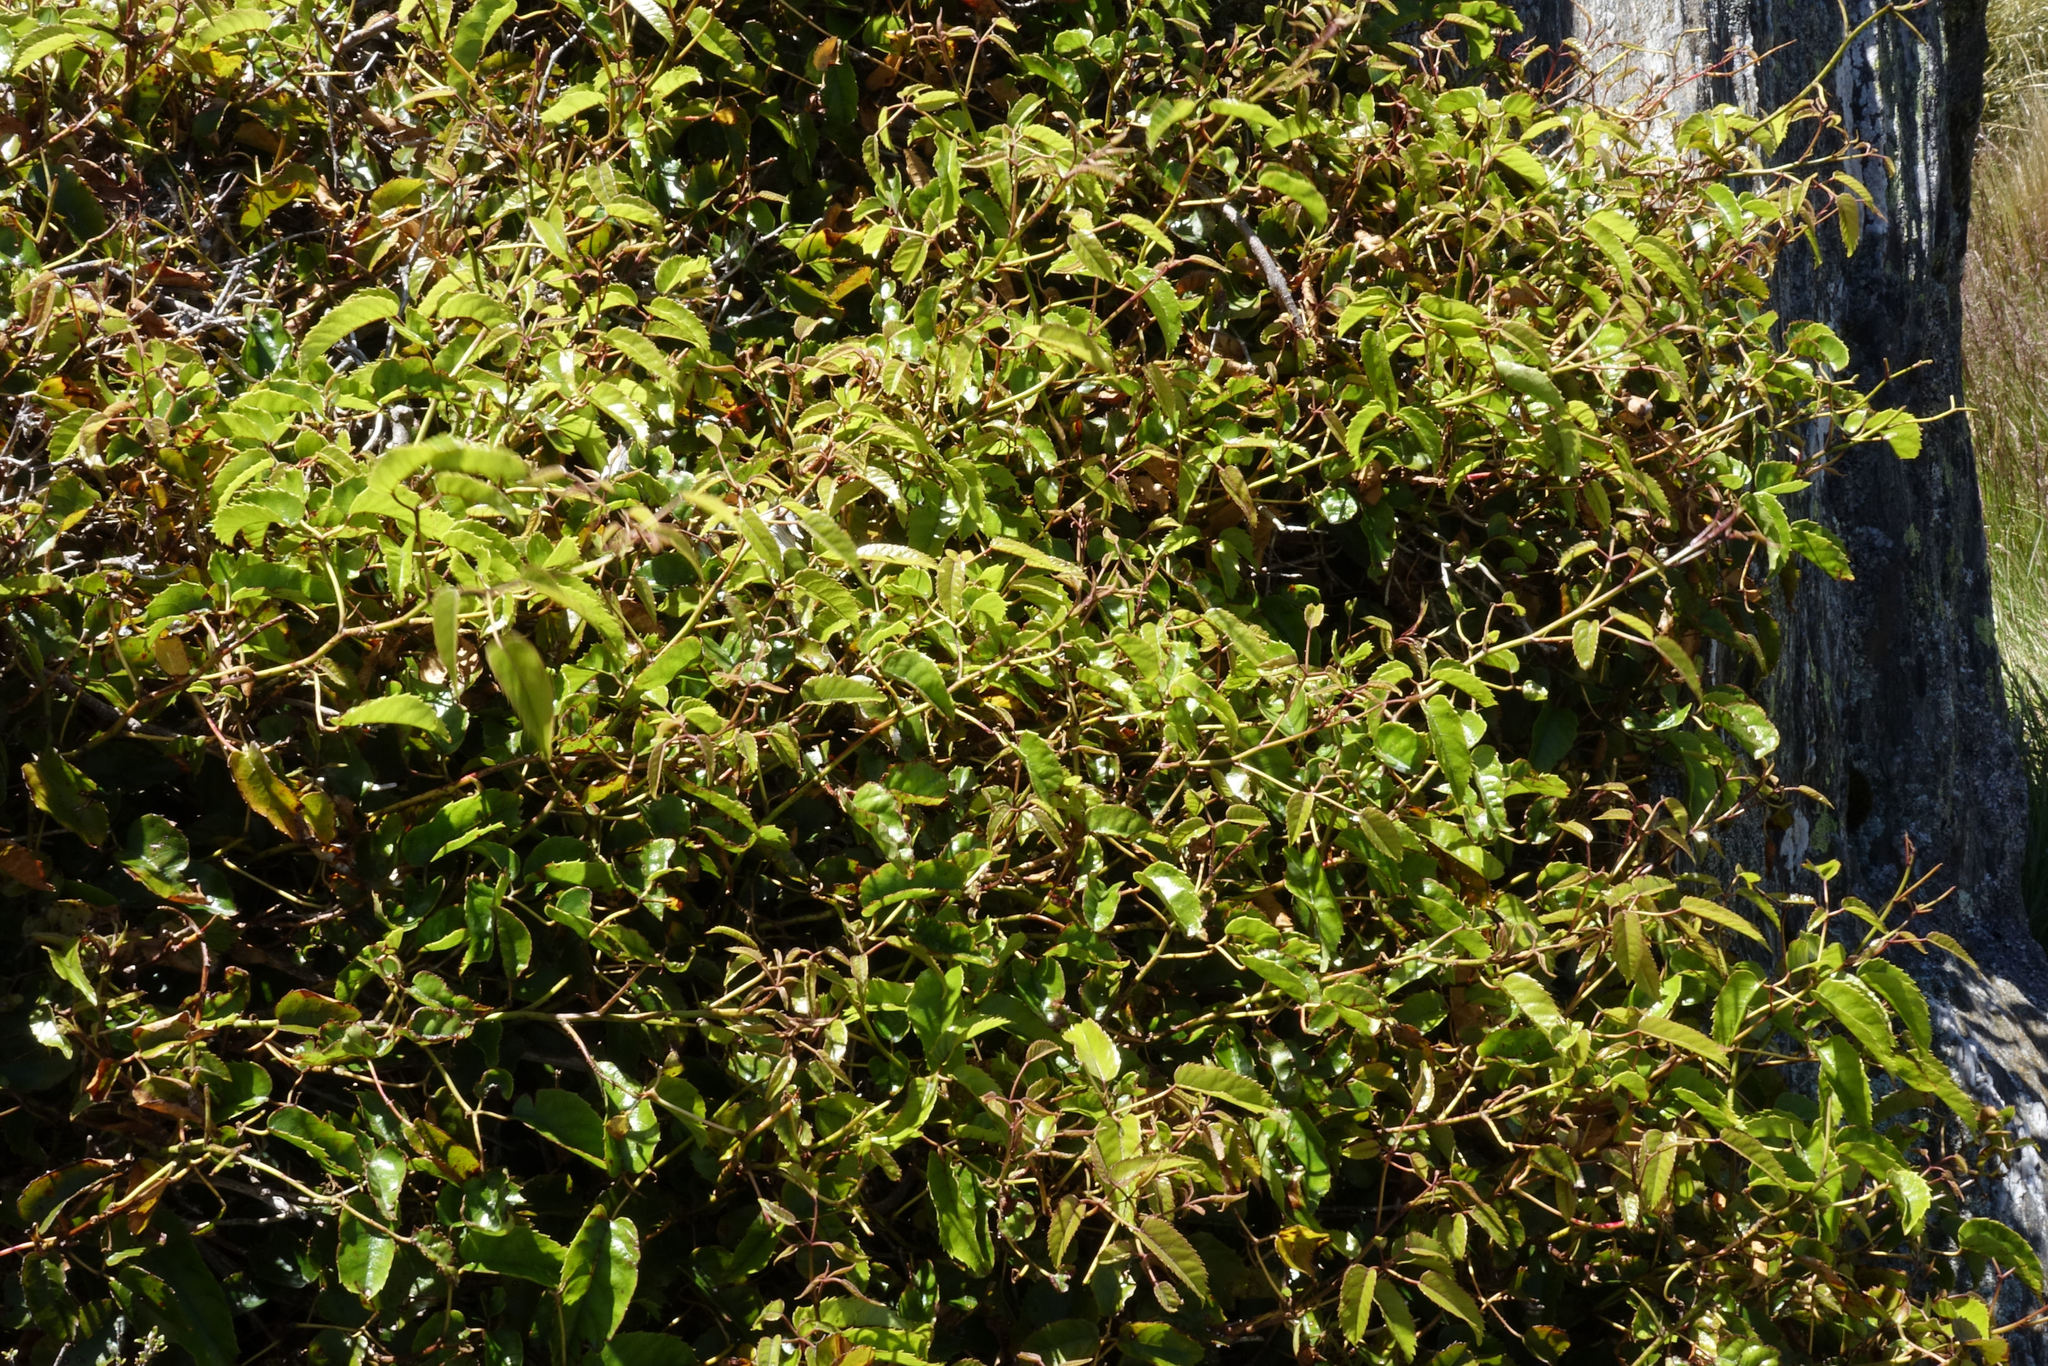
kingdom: Plantae
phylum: Tracheophyta
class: Magnoliopsida
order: Rosales
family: Rosaceae
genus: Rubus
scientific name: Rubus cissoides
